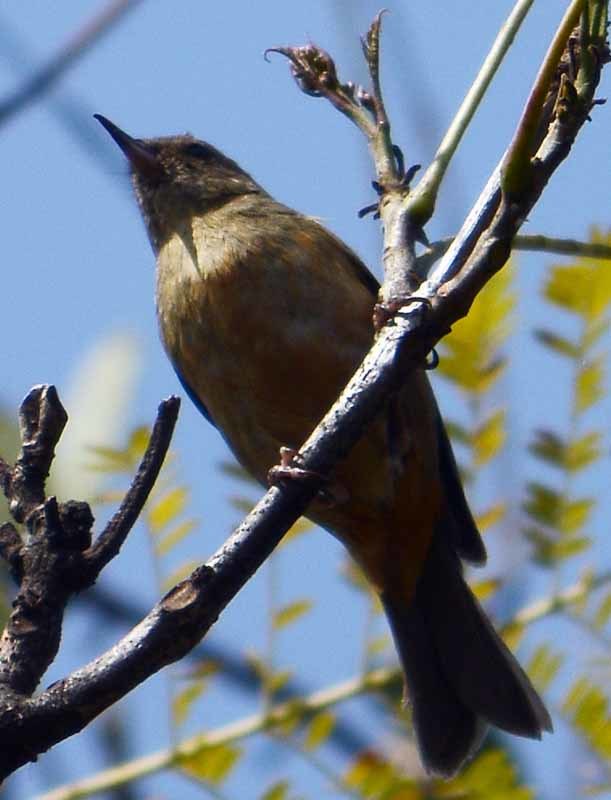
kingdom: Animalia
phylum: Chordata
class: Aves
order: Passeriformes
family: Thraupidae
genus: Diglossa
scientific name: Diglossa baritula
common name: Cinnamon-bellied flowerpiercer
